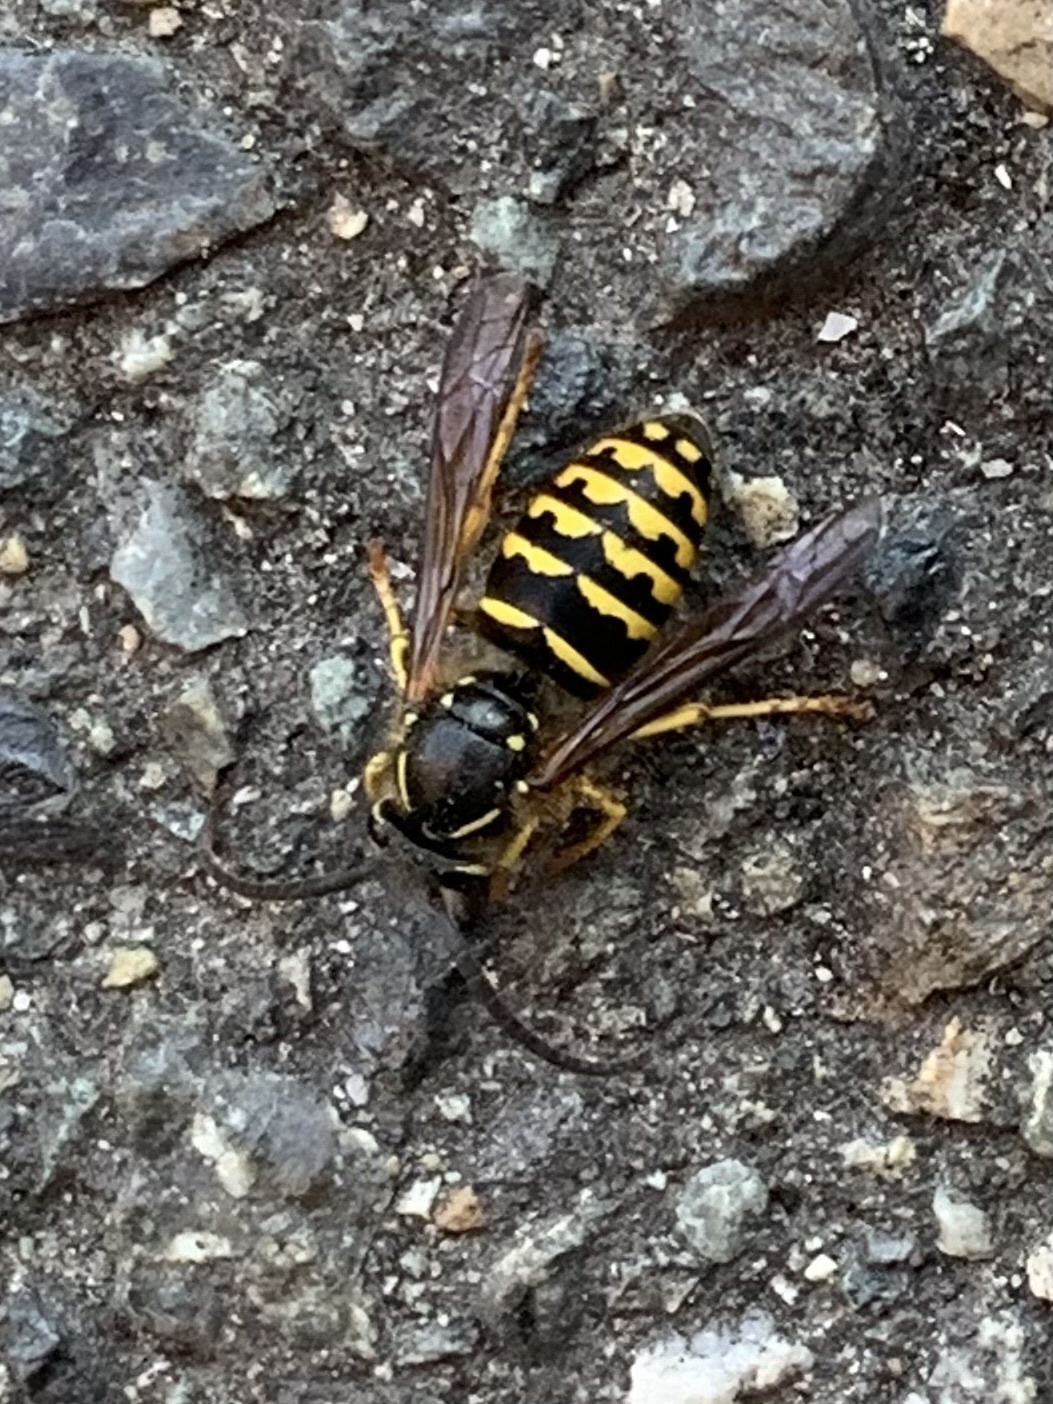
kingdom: Animalia
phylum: Arthropoda
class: Insecta
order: Hymenoptera
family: Vespidae
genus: Dolichovespula
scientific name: Dolichovespula arenaria
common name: Aerial yellowjacket
